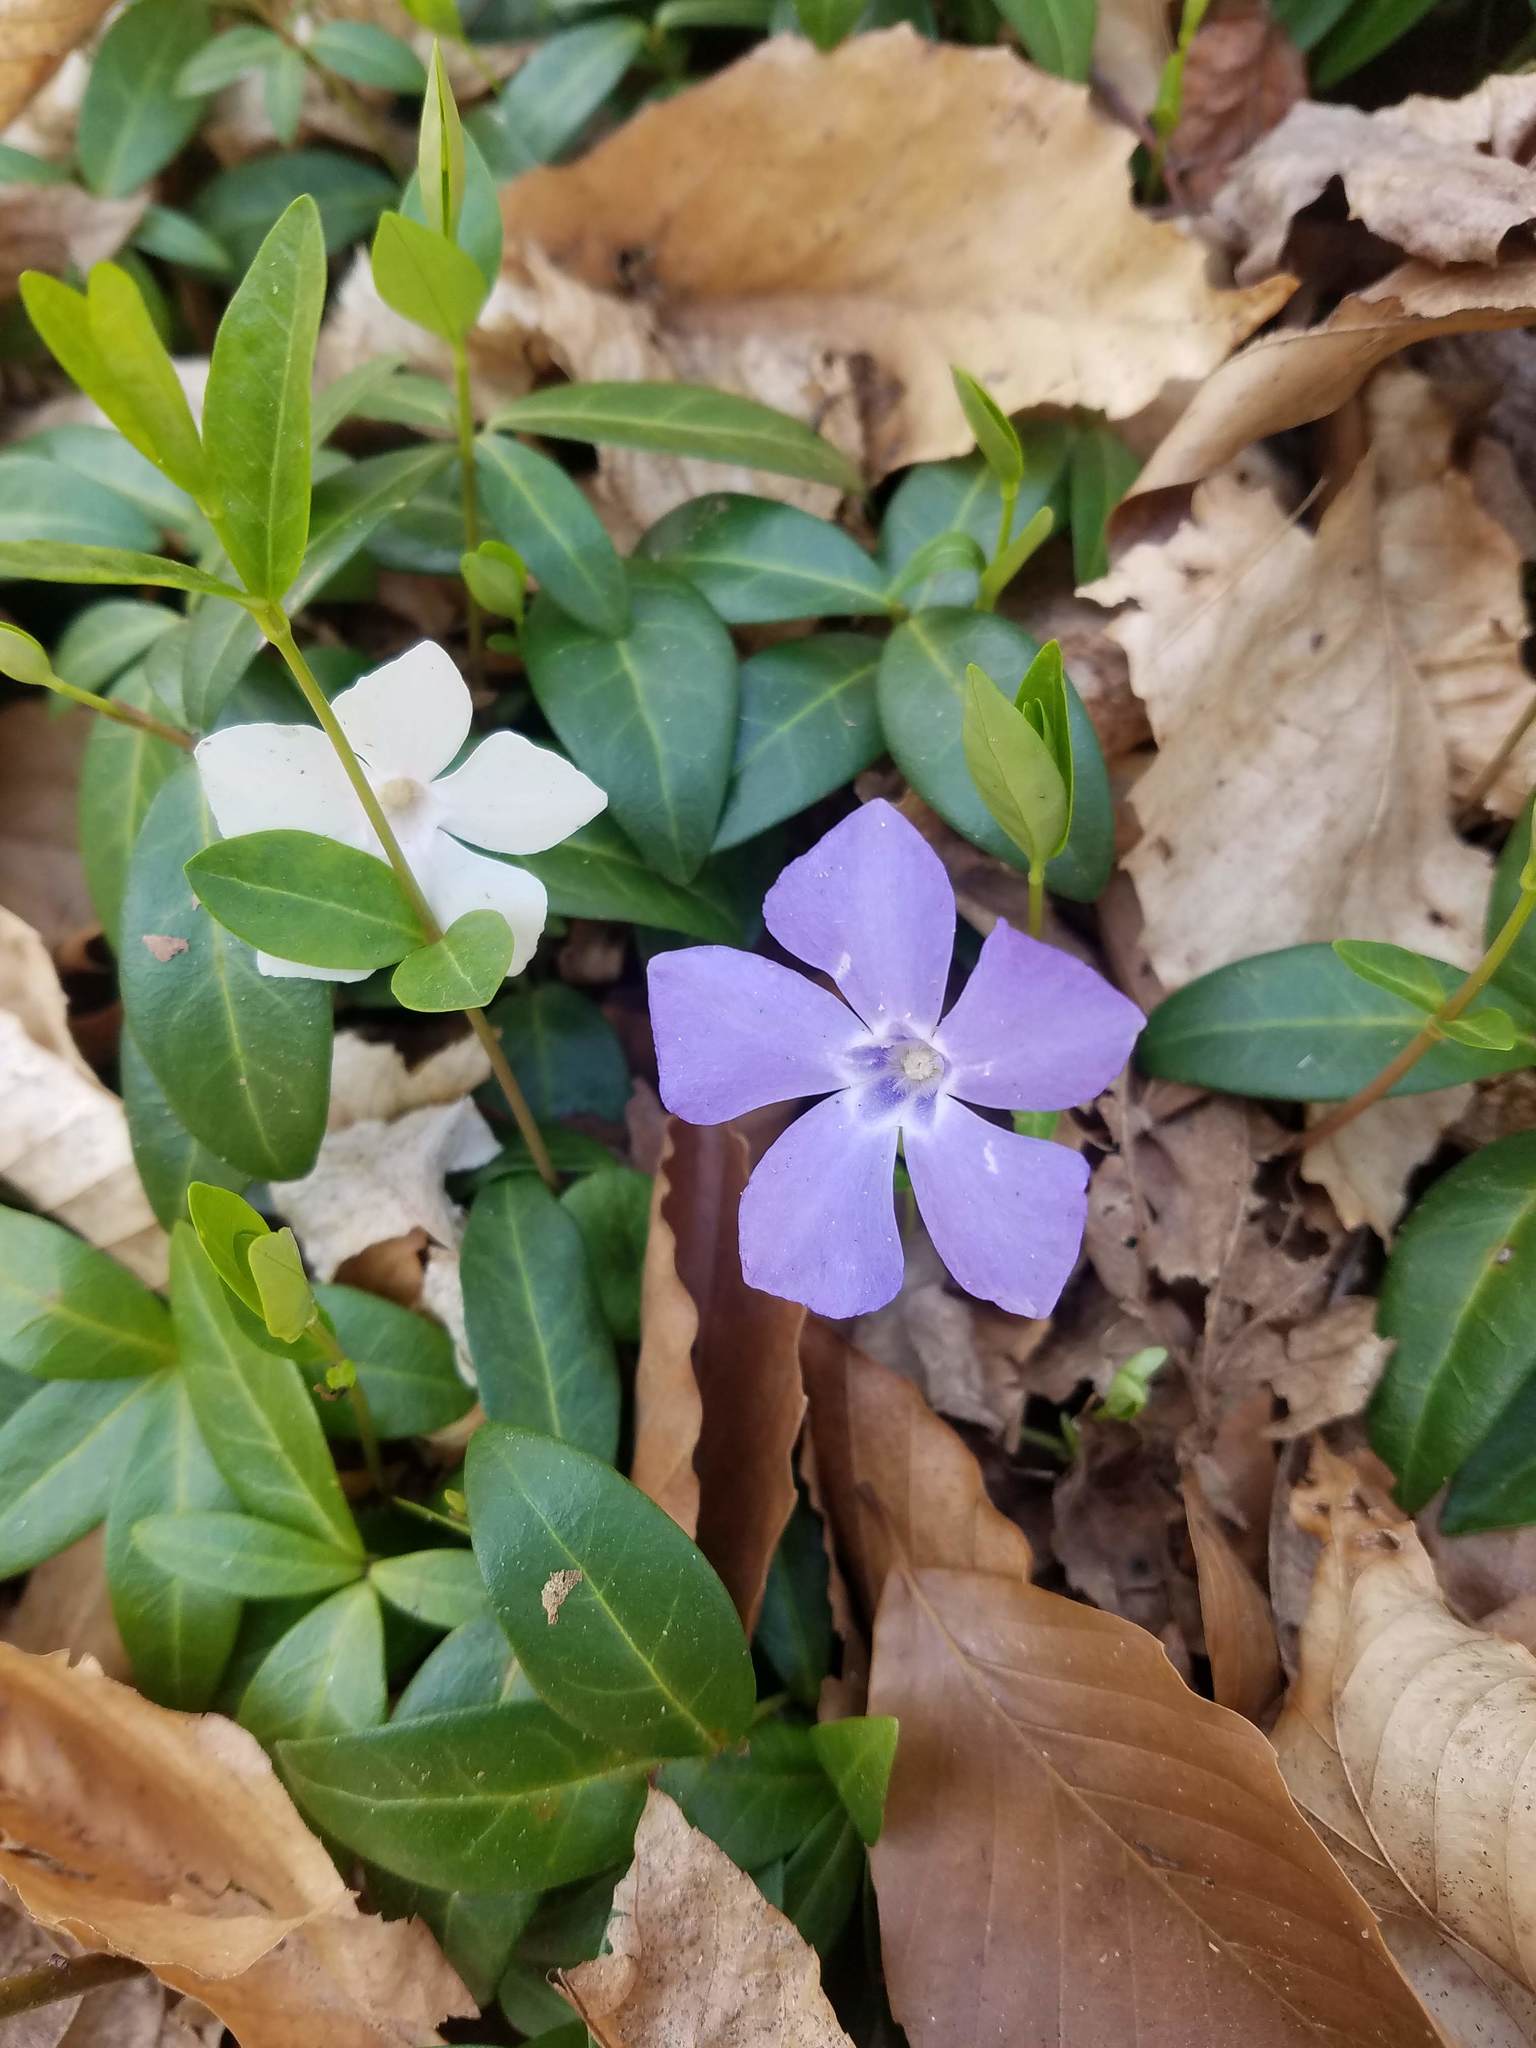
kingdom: Plantae
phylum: Tracheophyta
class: Magnoliopsida
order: Gentianales
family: Apocynaceae
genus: Vinca
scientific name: Vinca minor
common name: Lesser periwinkle
